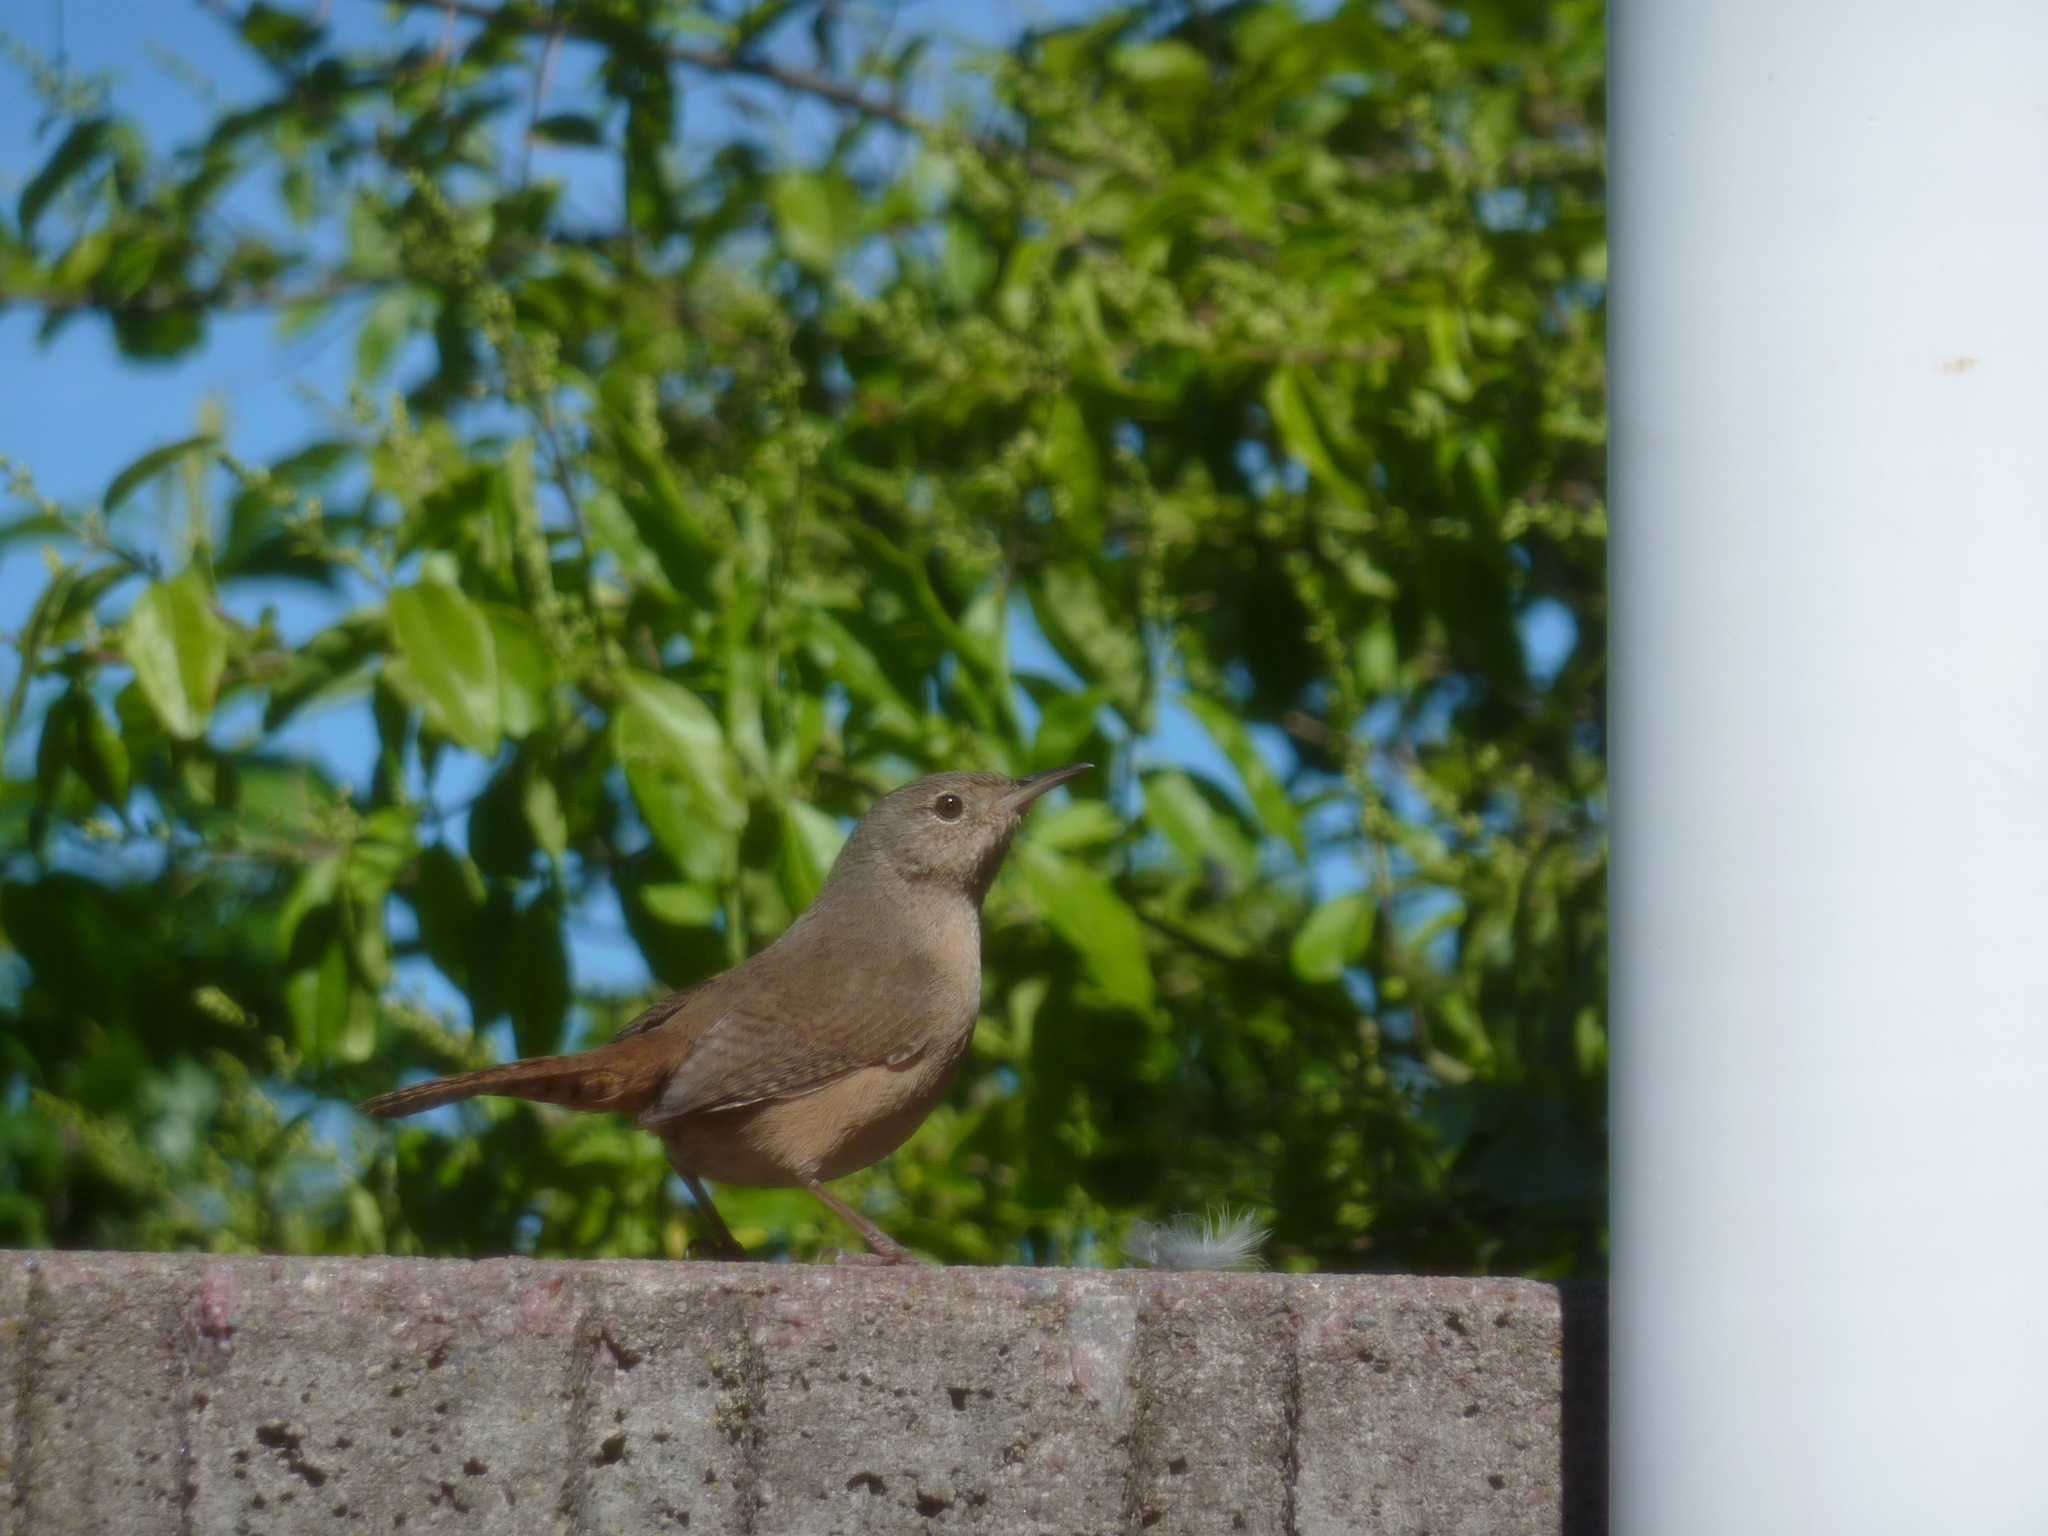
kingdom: Animalia
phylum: Chordata
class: Aves
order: Passeriformes
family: Troglodytidae
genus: Troglodytes
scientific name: Troglodytes aedon
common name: House wren
